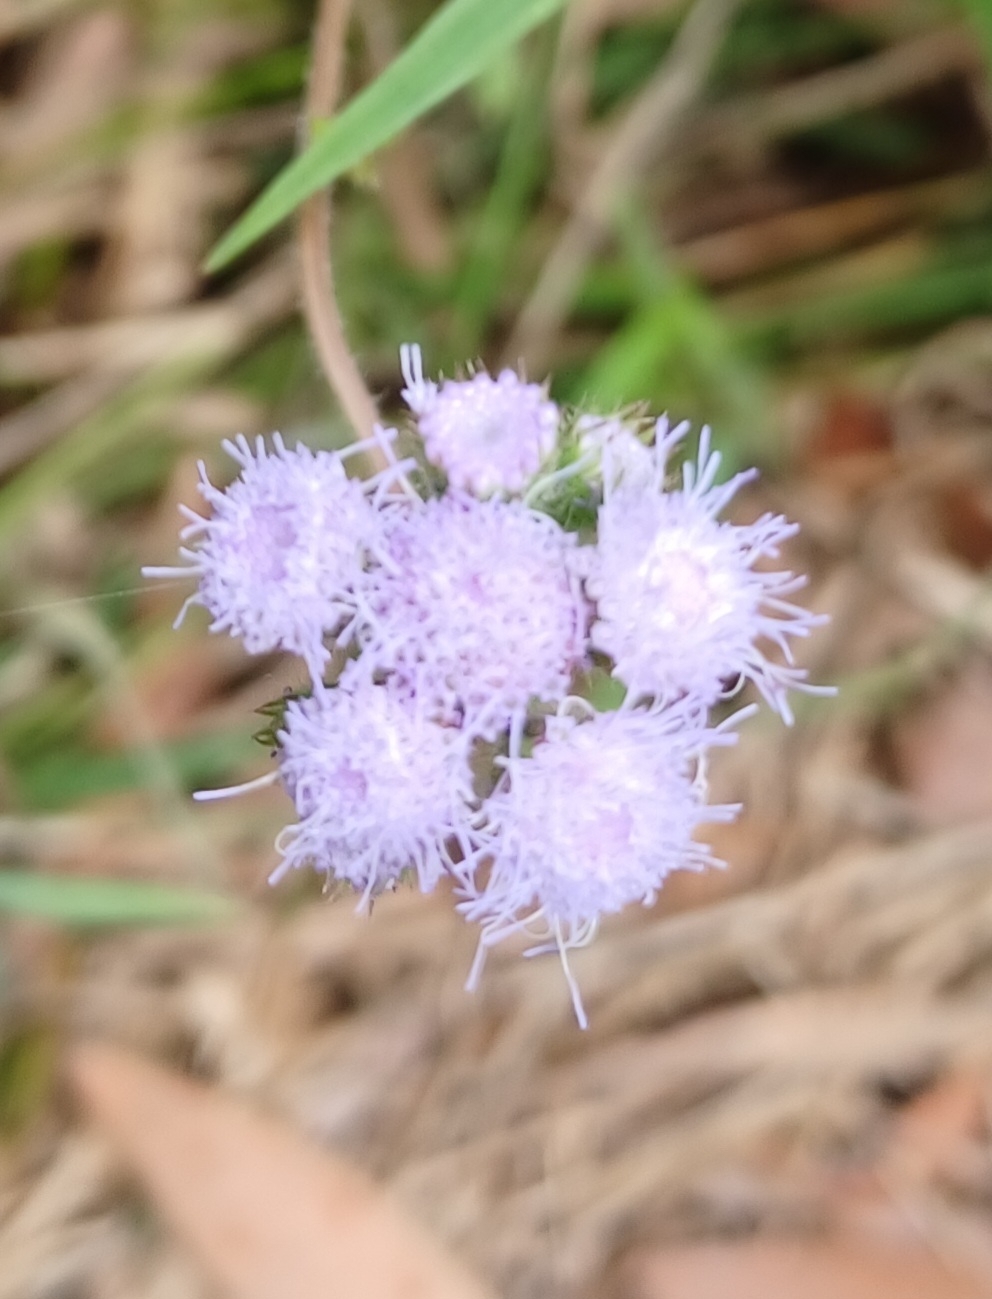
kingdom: Plantae
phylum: Tracheophyta
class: Magnoliopsida
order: Asterales
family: Asteraceae
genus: Ageratum
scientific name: Ageratum houstonianum
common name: Bluemink
